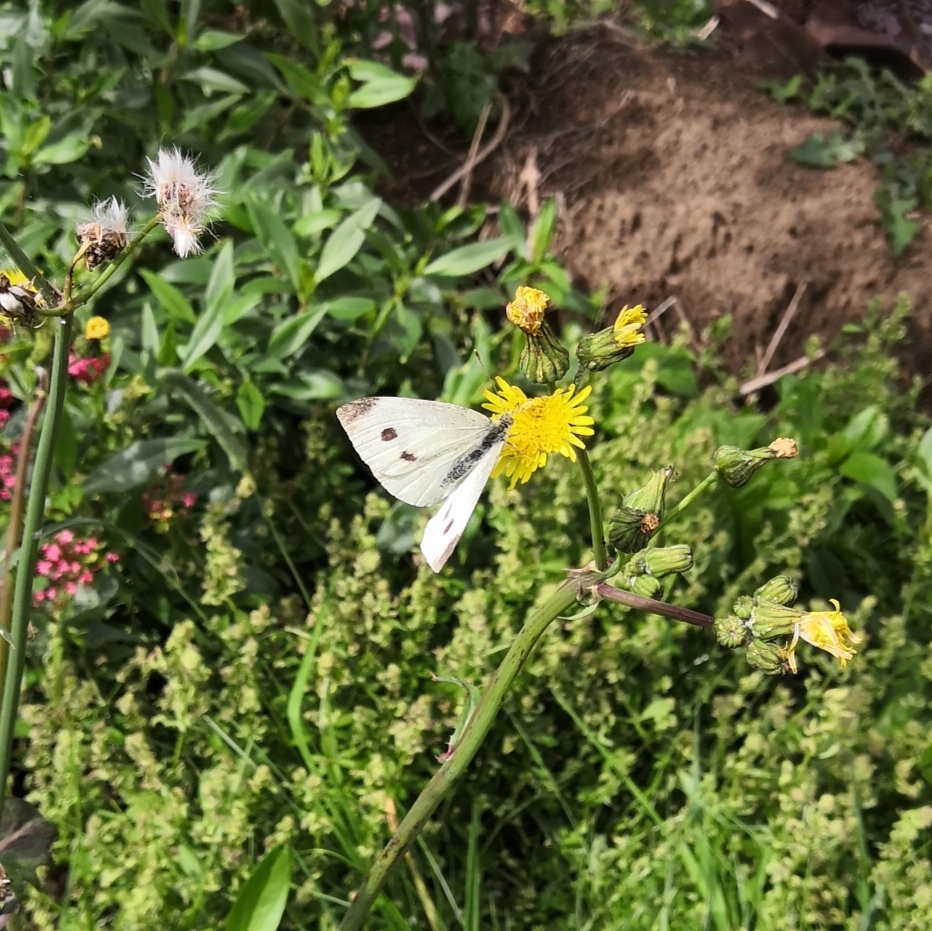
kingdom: Animalia
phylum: Arthropoda
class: Insecta
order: Lepidoptera
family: Pieridae
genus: Pieris
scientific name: Pieris rapae
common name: Small white
